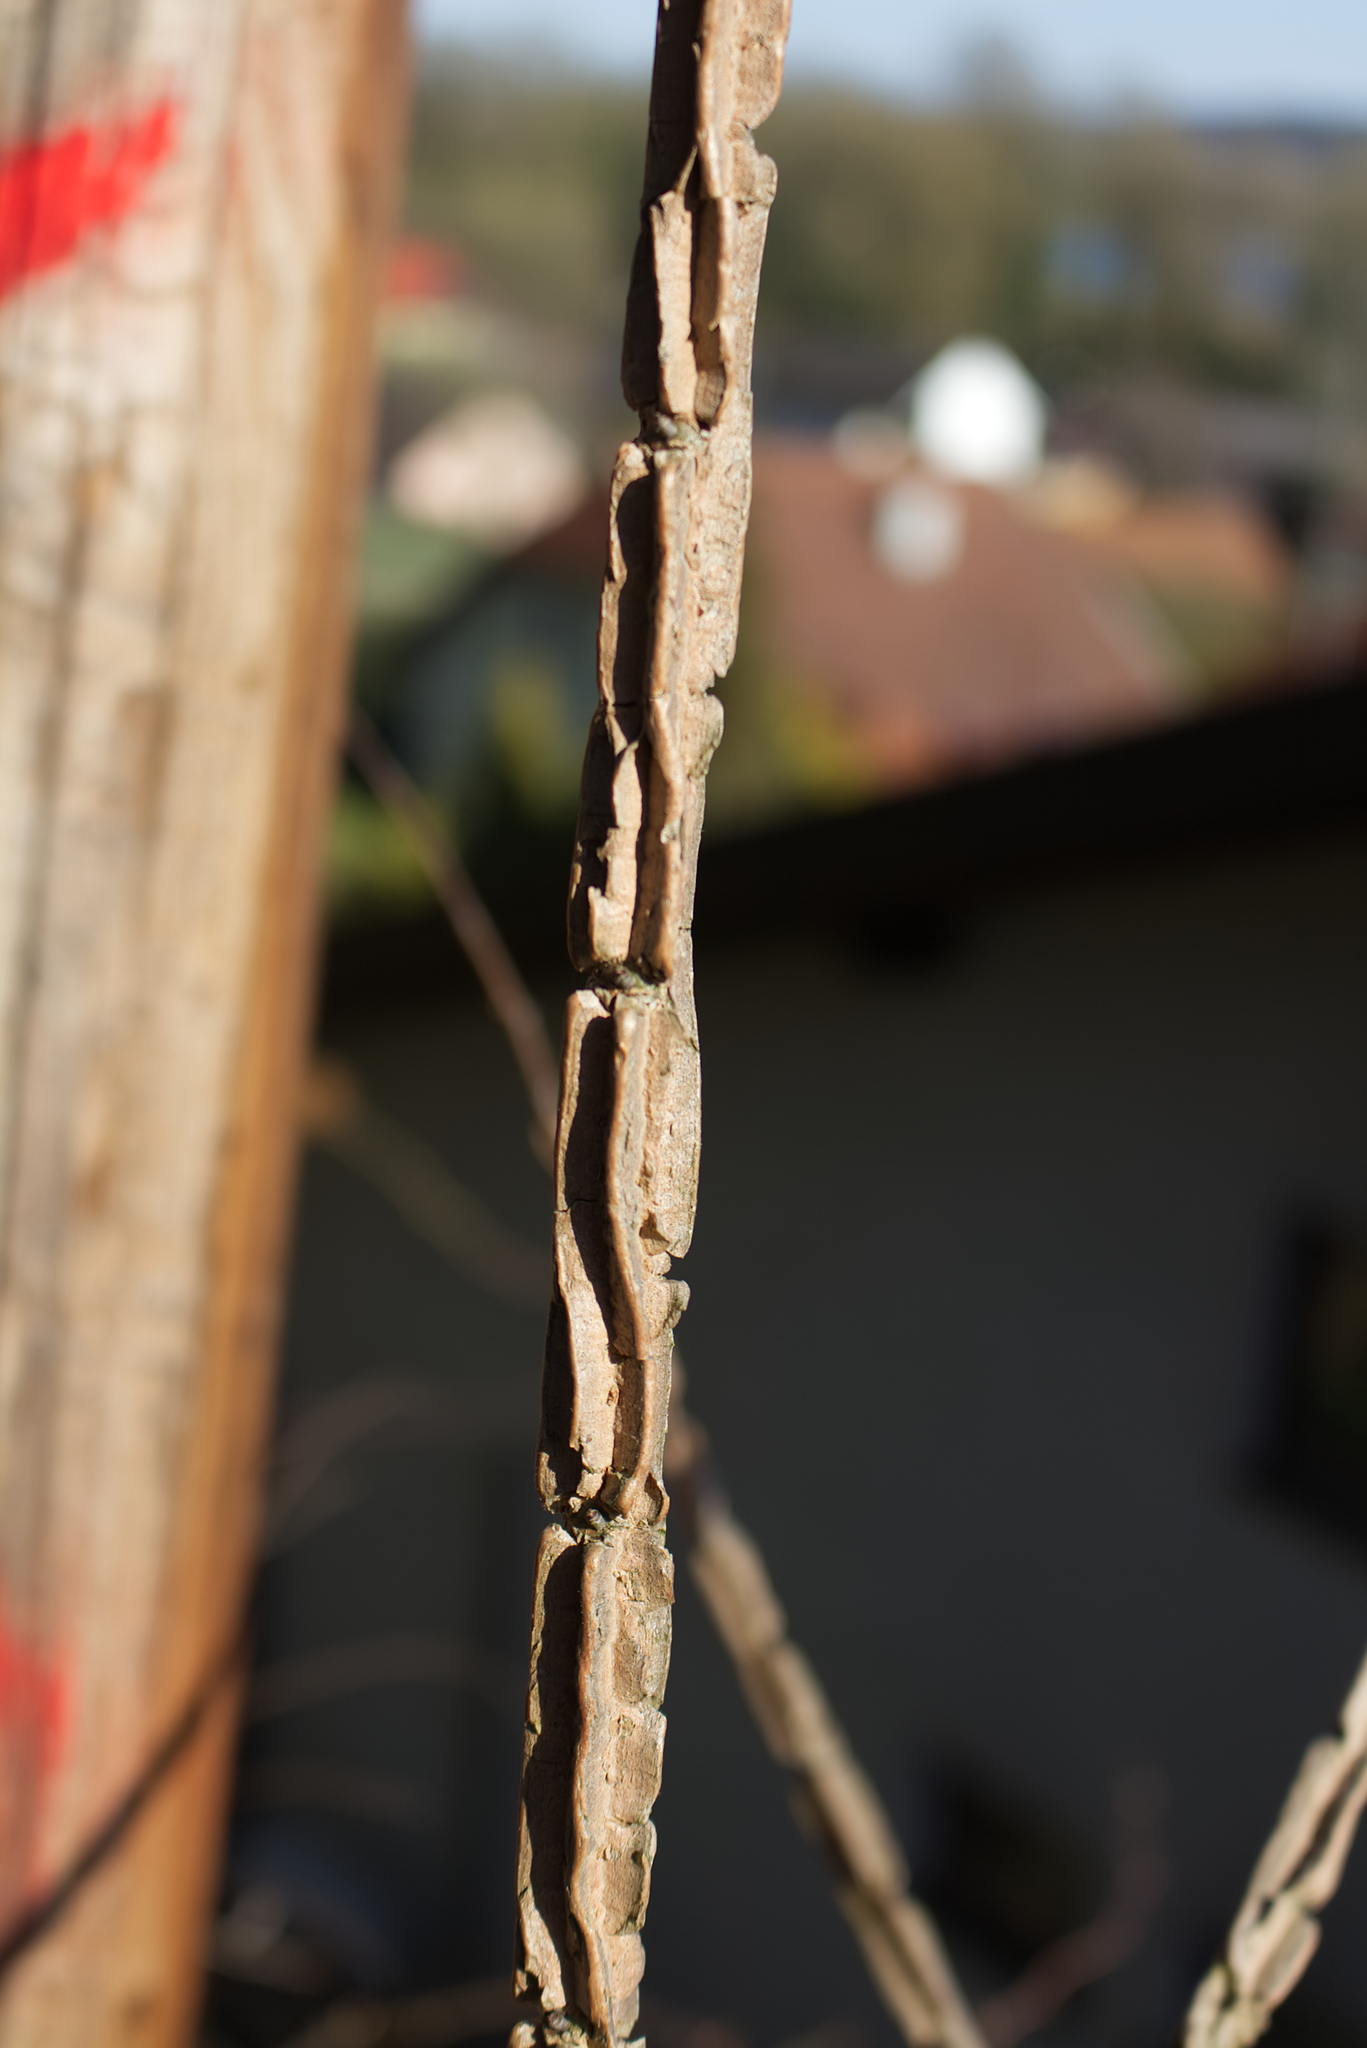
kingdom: Plantae
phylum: Tracheophyta
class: Magnoliopsida
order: Rosales
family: Ulmaceae
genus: Ulmus
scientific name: Ulmus minor
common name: Small-leaved elm
